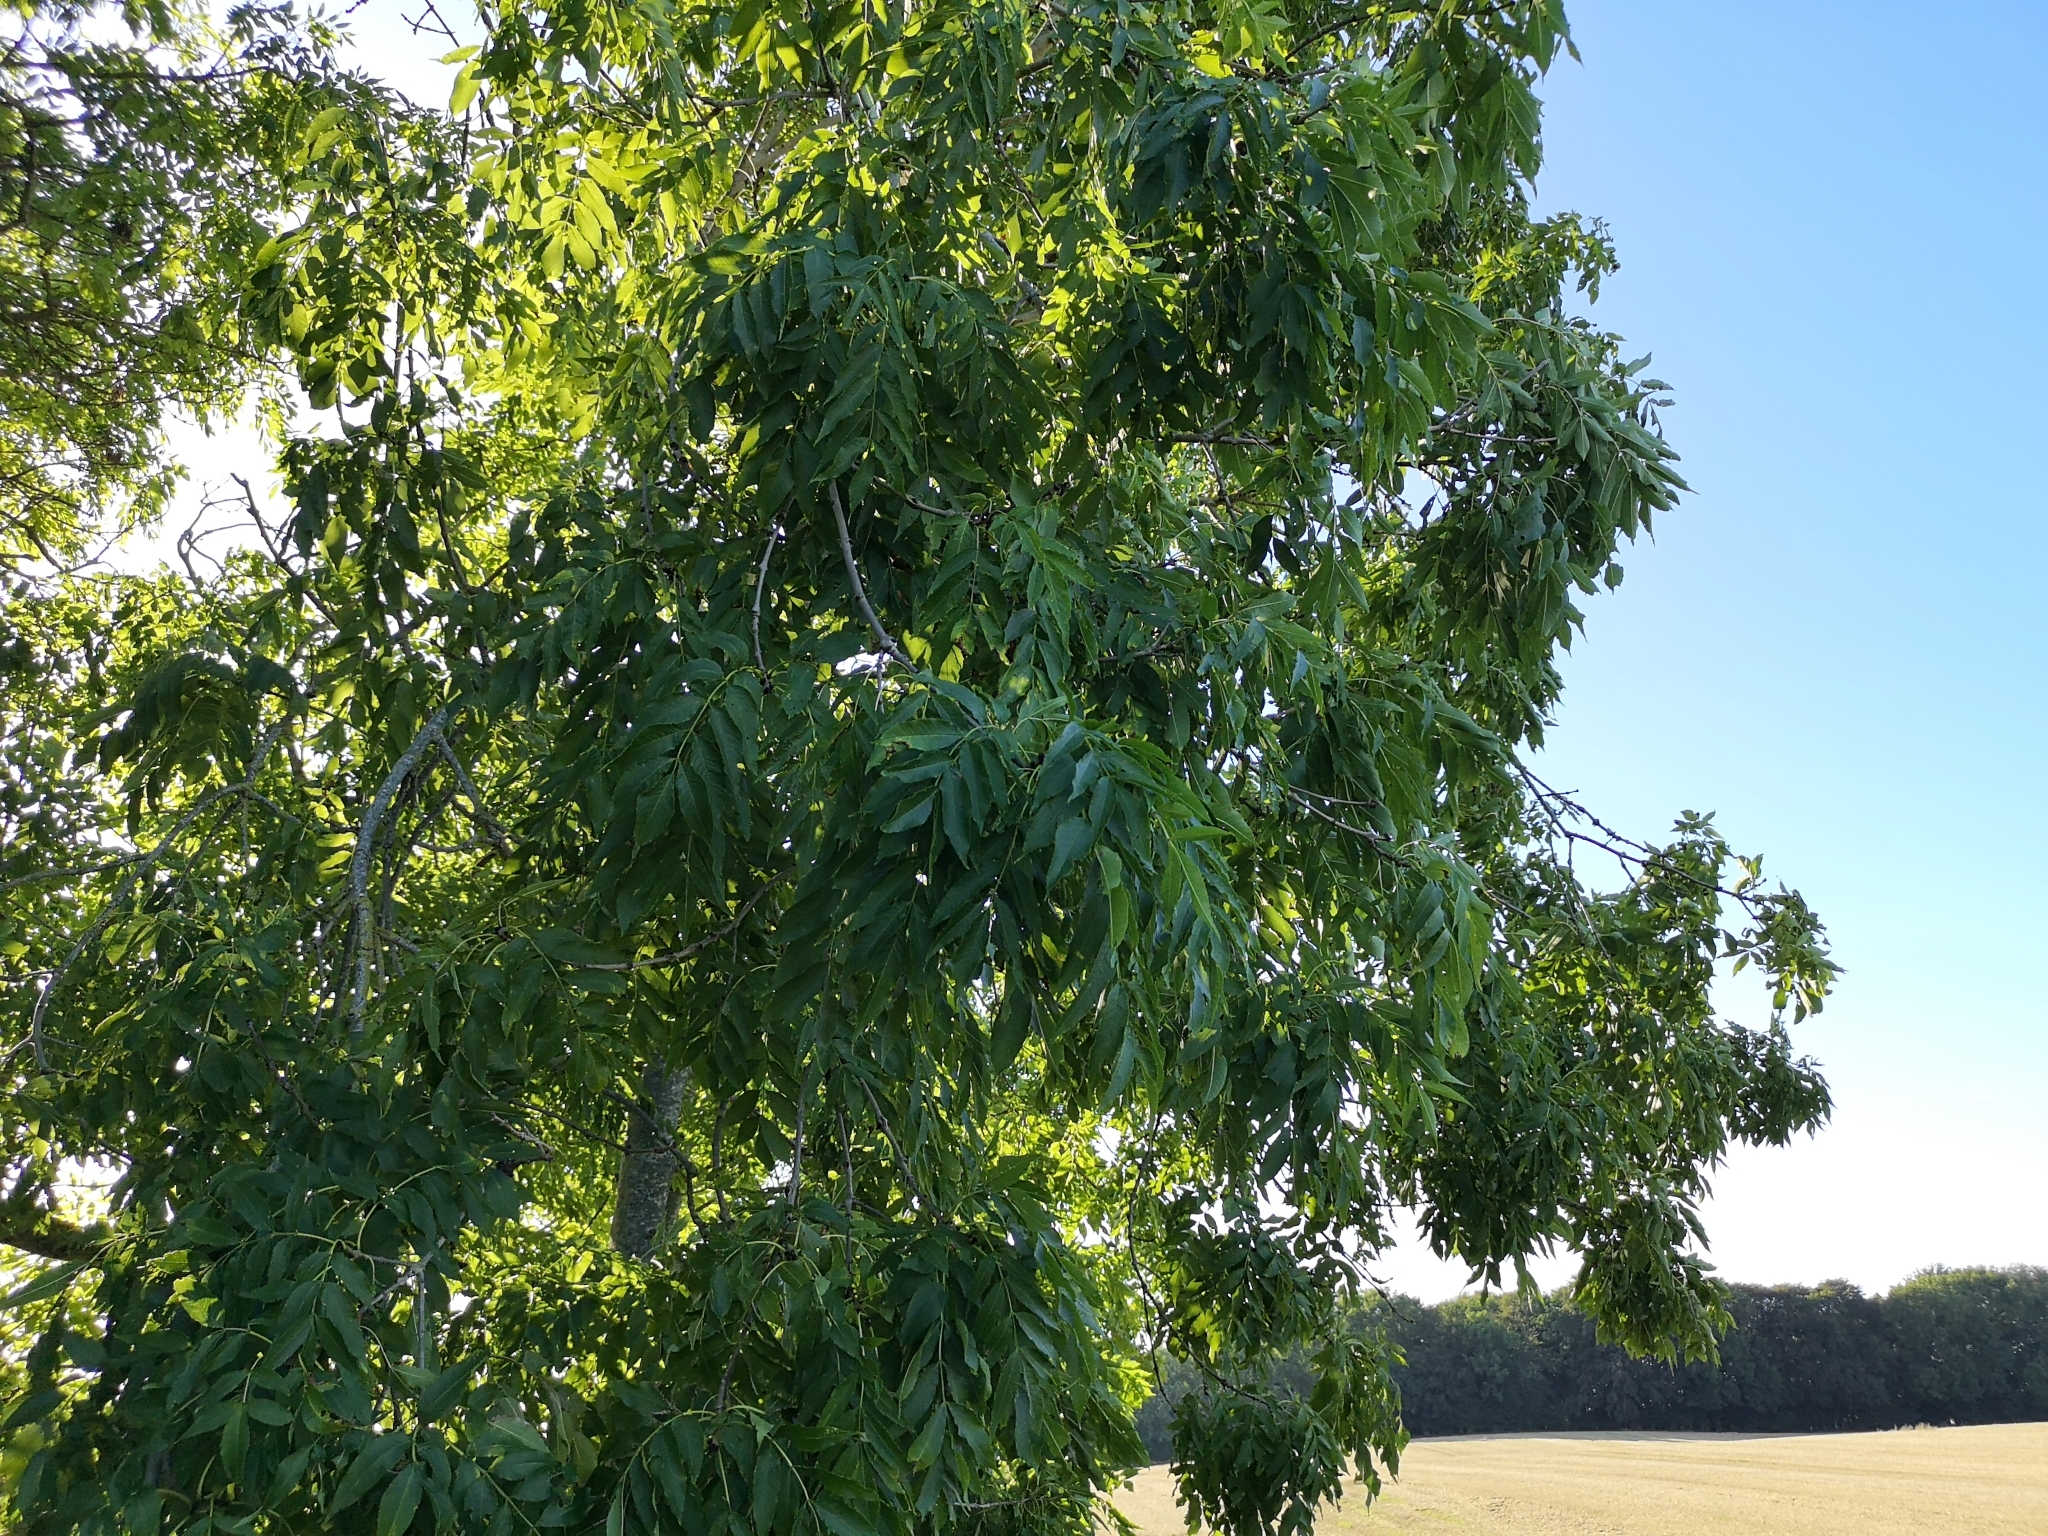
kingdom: Plantae
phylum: Tracheophyta
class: Magnoliopsida
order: Lamiales
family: Oleaceae
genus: Fraxinus
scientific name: Fraxinus excelsior
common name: European ash
